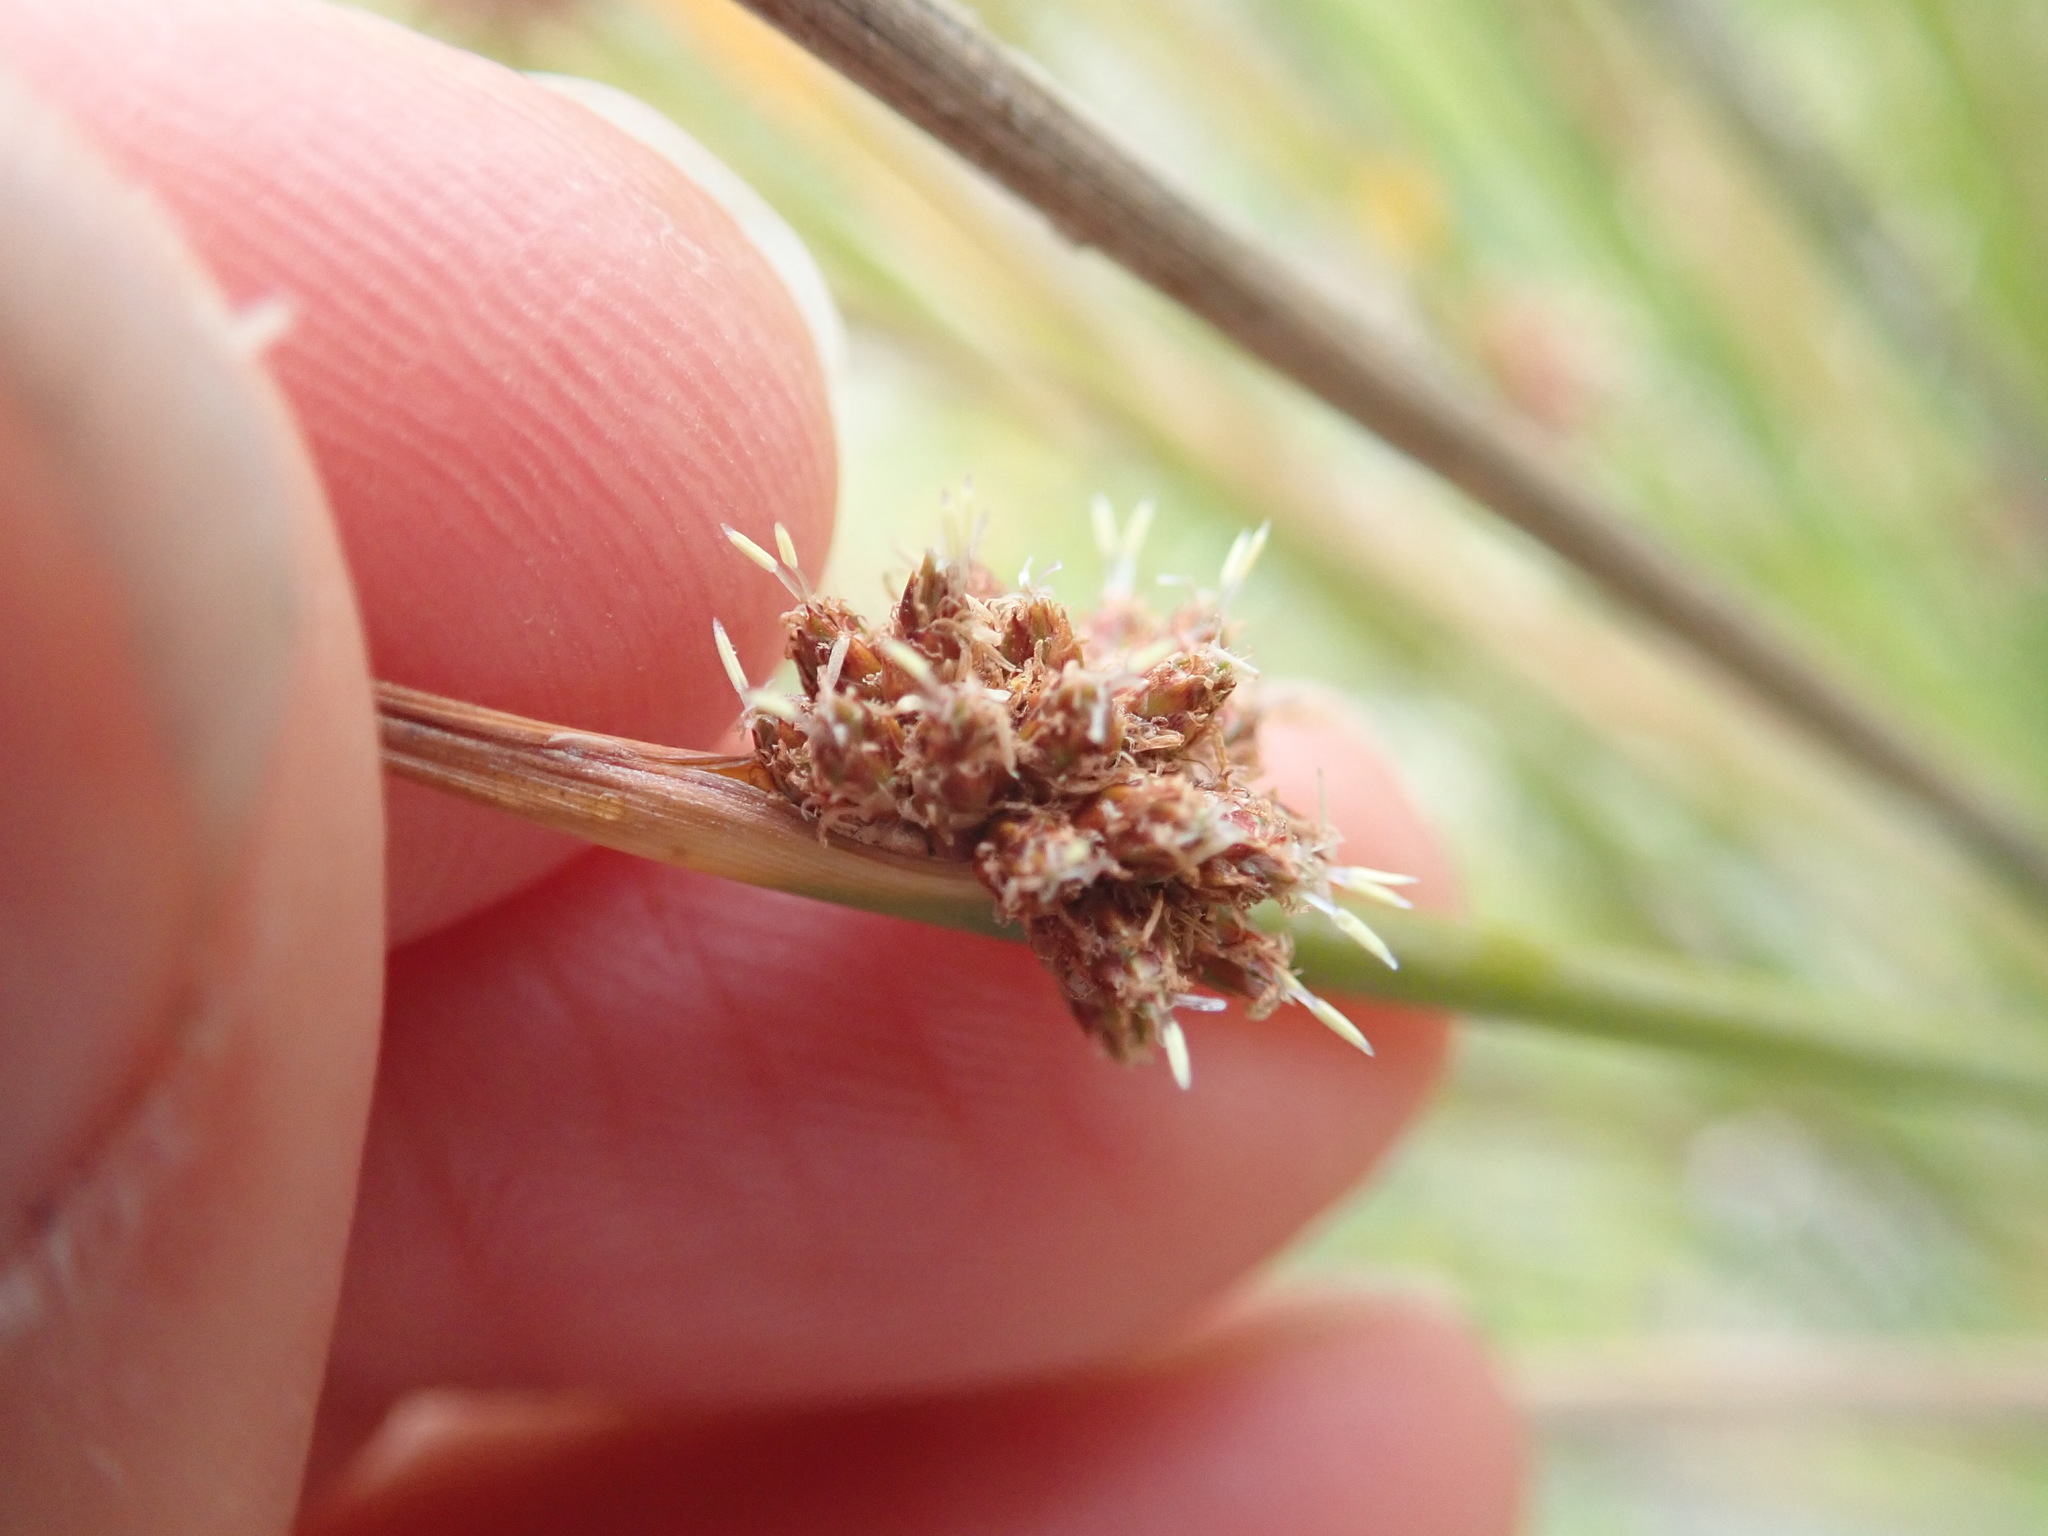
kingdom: Plantae
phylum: Tracheophyta
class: Liliopsida
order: Poales
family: Cyperaceae
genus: Ficinia
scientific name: Ficinia nodosa
